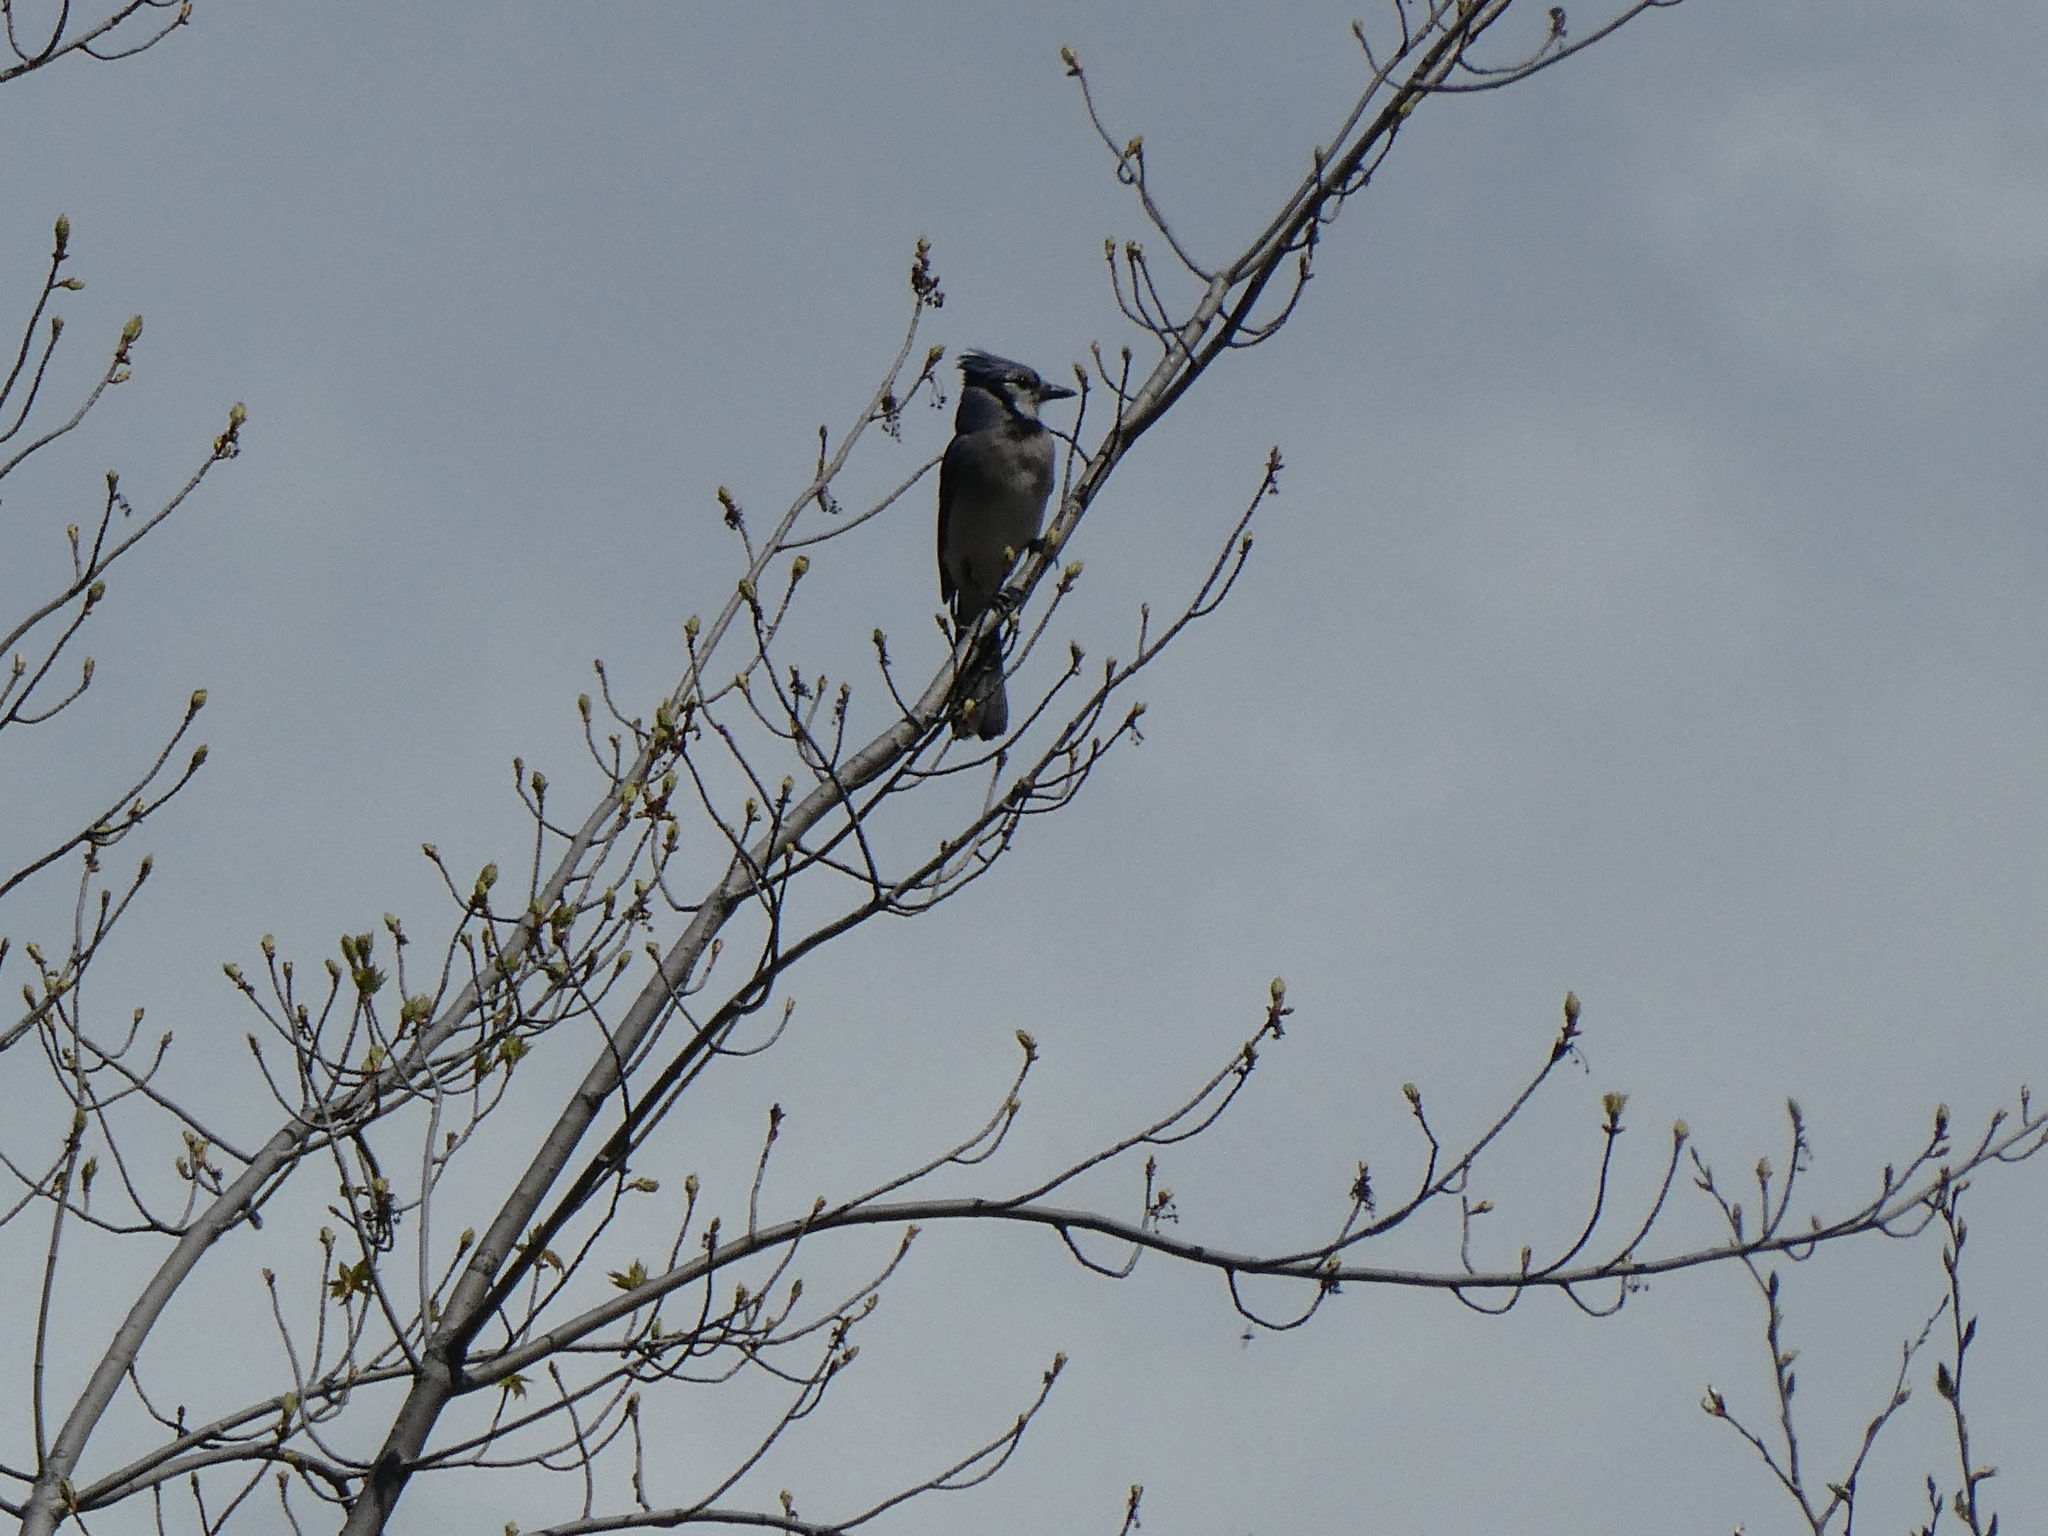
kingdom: Animalia
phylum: Chordata
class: Aves
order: Passeriformes
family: Corvidae
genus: Cyanocitta
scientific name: Cyanocitta cristata
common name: Blue jay
